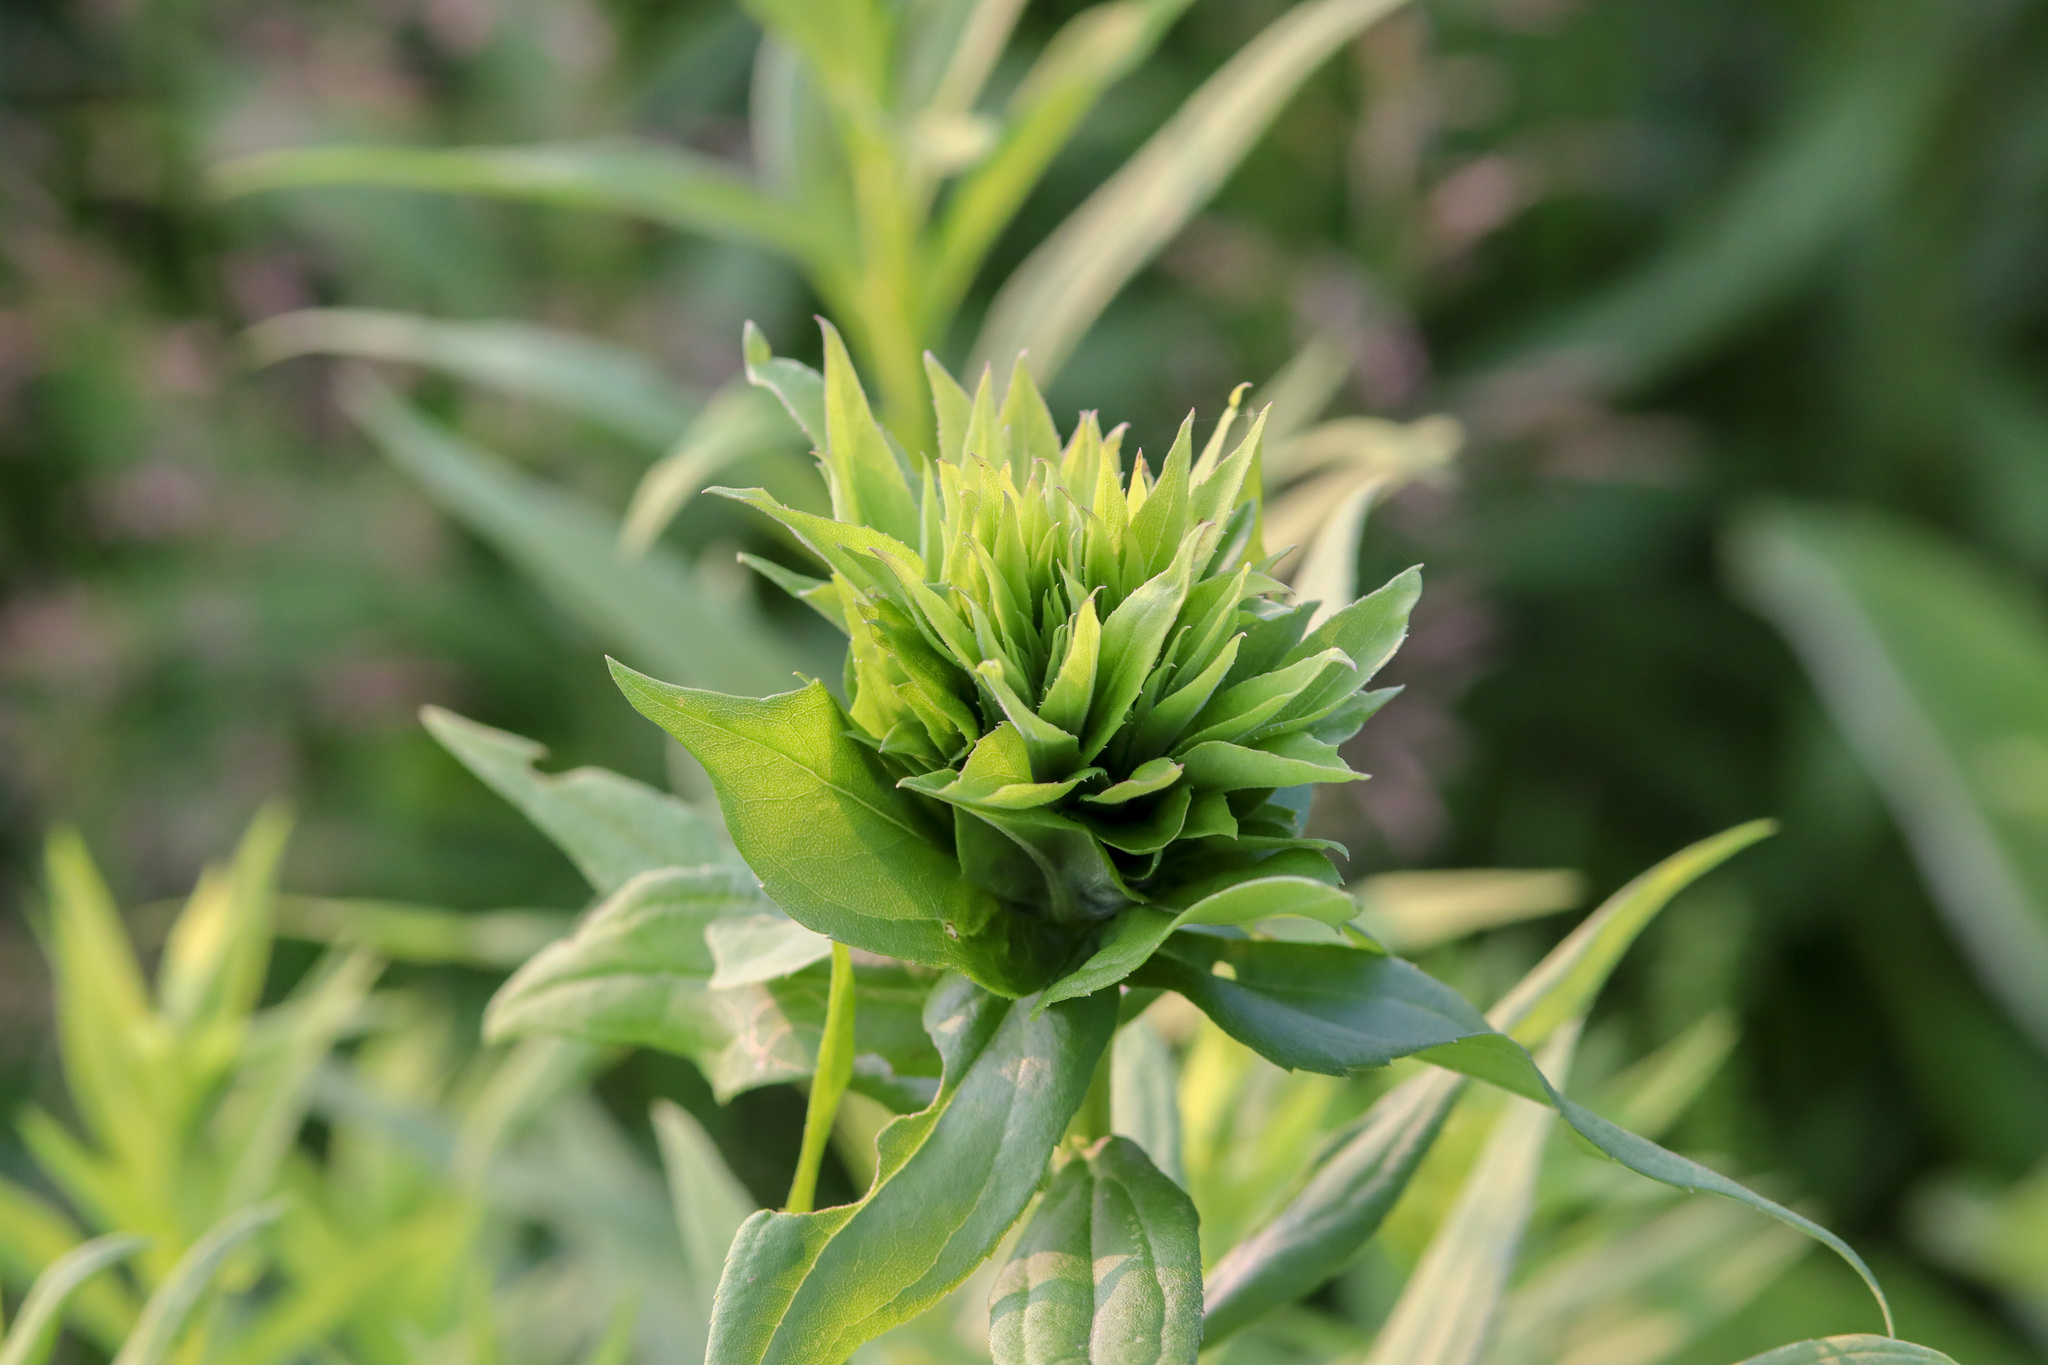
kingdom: Animalia
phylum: Arthropoda
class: Insecta
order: Diptera
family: Cecidomyiidae
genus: Rhopalomyia
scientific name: Rhopalomyia solidaginis
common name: Goldenrod bunch gall midge
